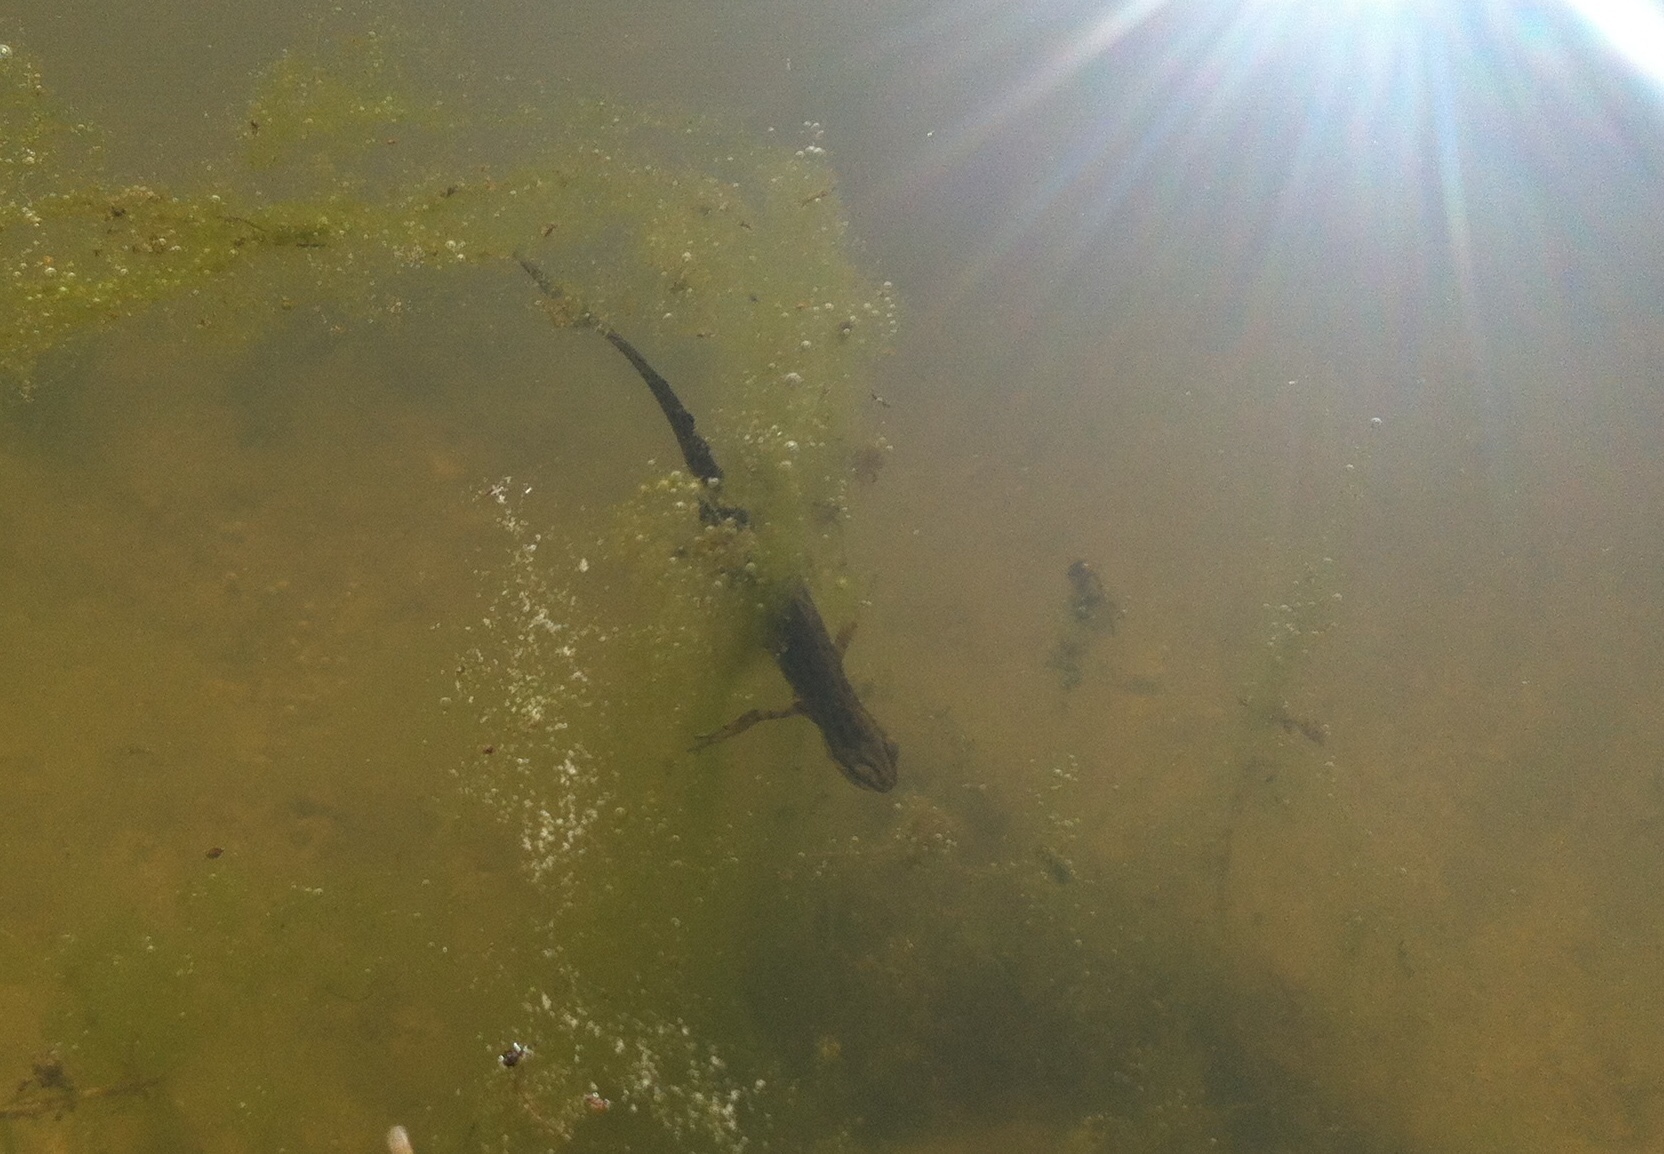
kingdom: Animalia
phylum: Chordata
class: Amphibia
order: Caudata
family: Salamandridae
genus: Lissotriton
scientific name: Lissotriton vulgaris
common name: Smooth newt
